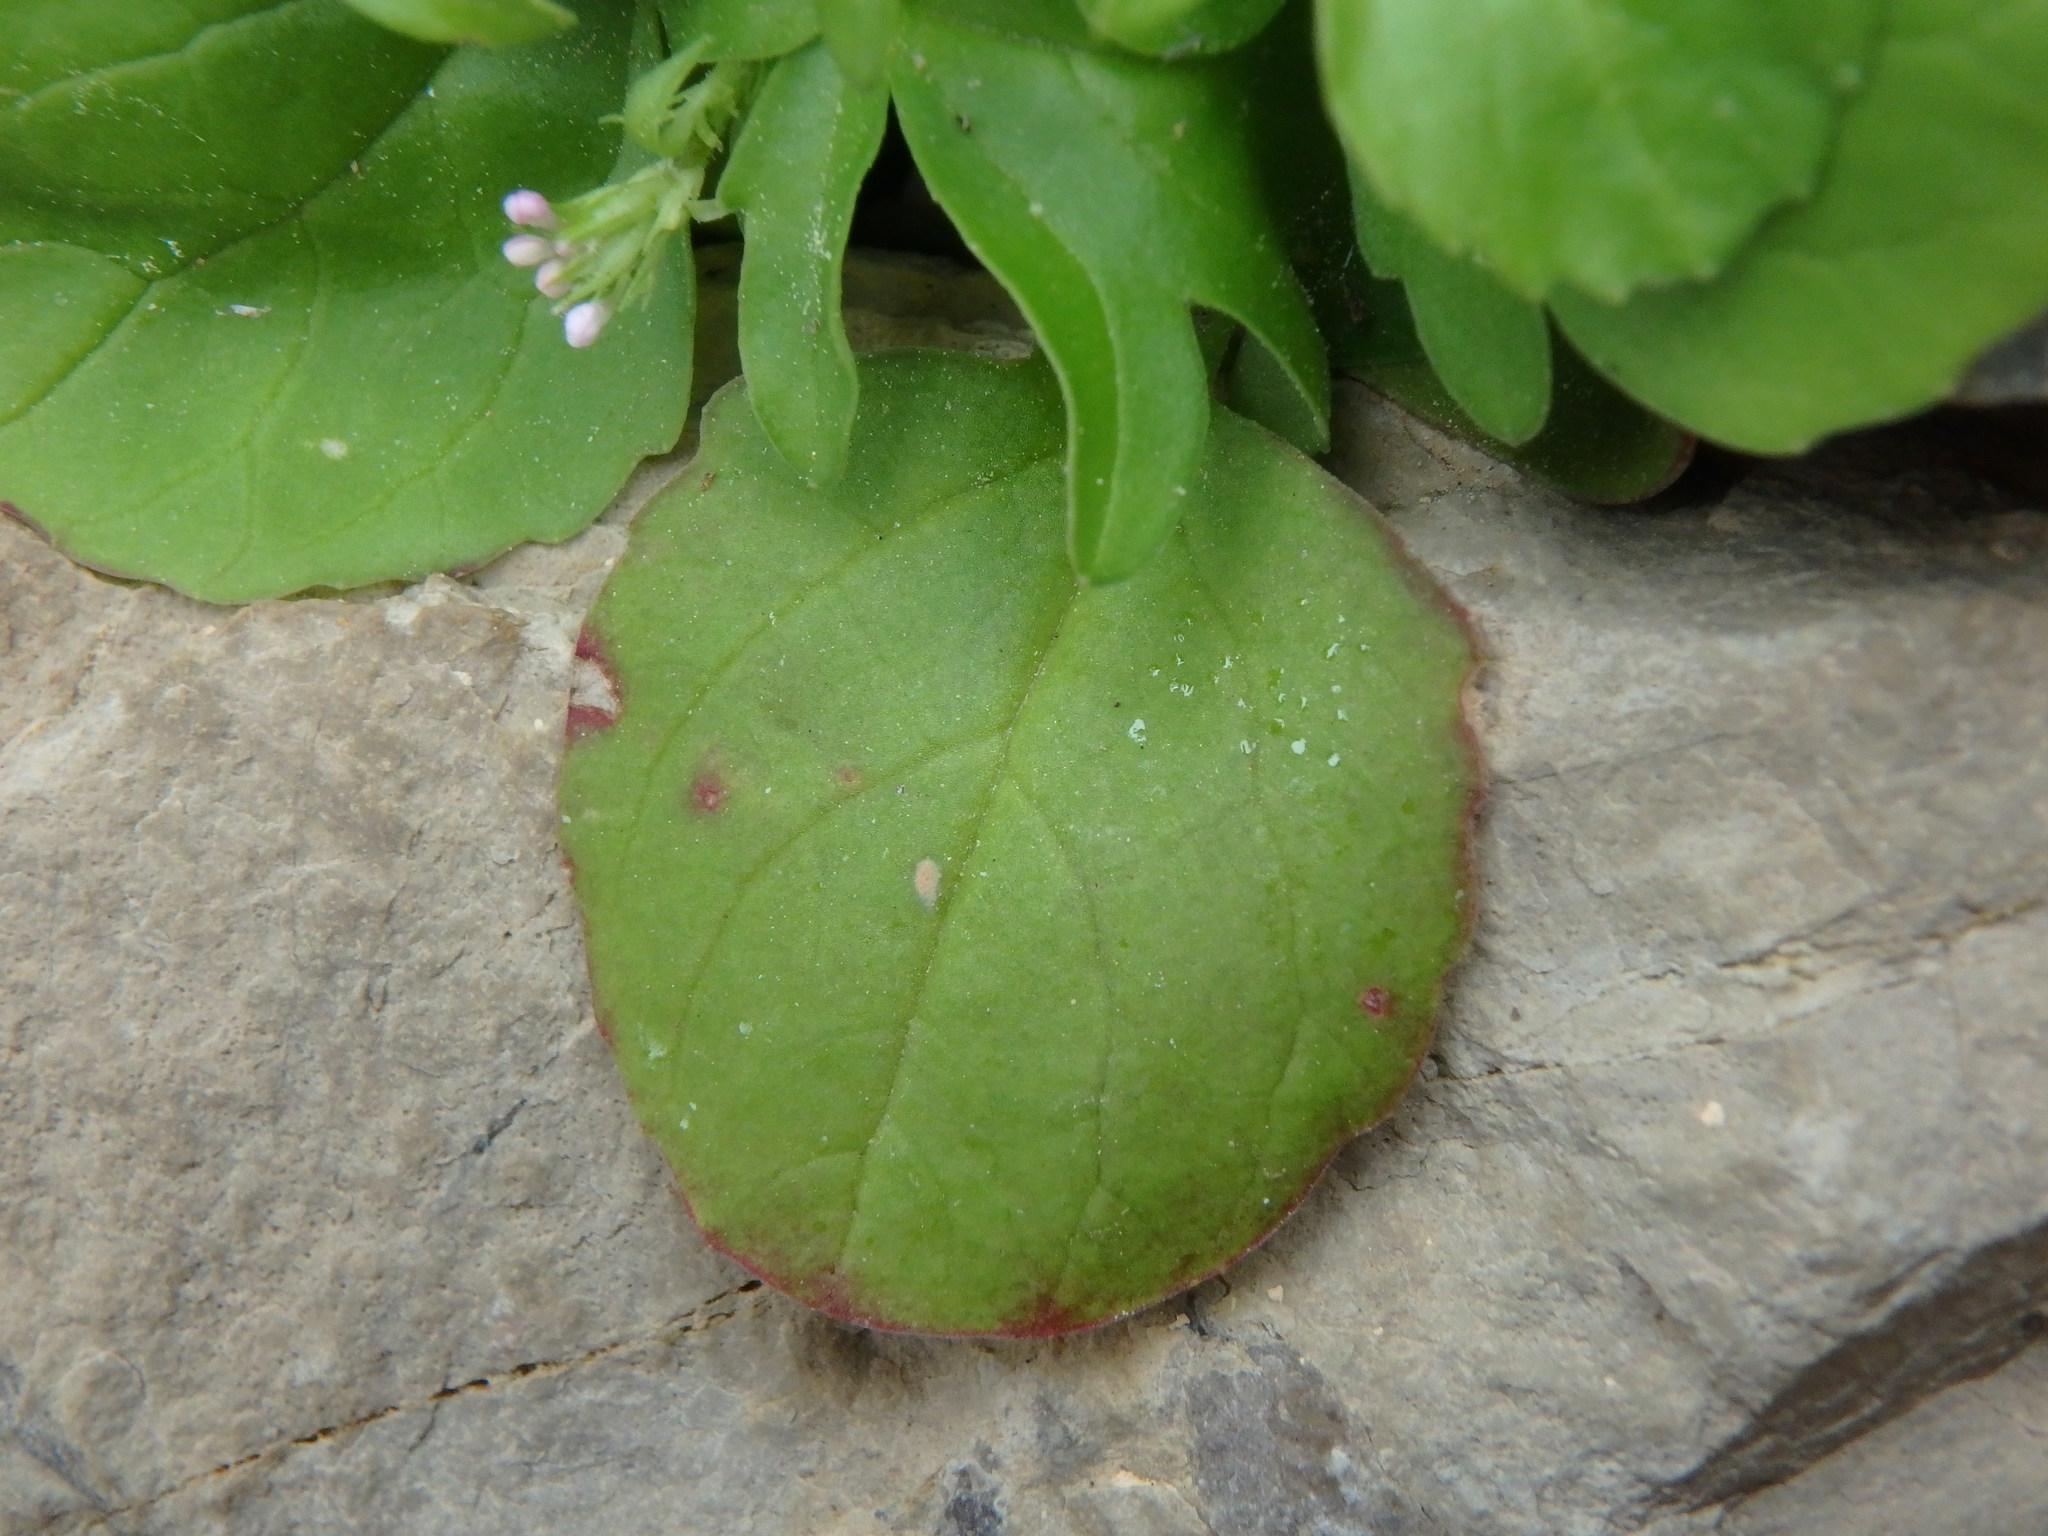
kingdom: Plantae
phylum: Tracheophyta
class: Magnoliopsida
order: Dipsacales
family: Caprifoliaceae
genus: Centranthus
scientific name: Centranthus calcitrapae
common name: Annual valerian
